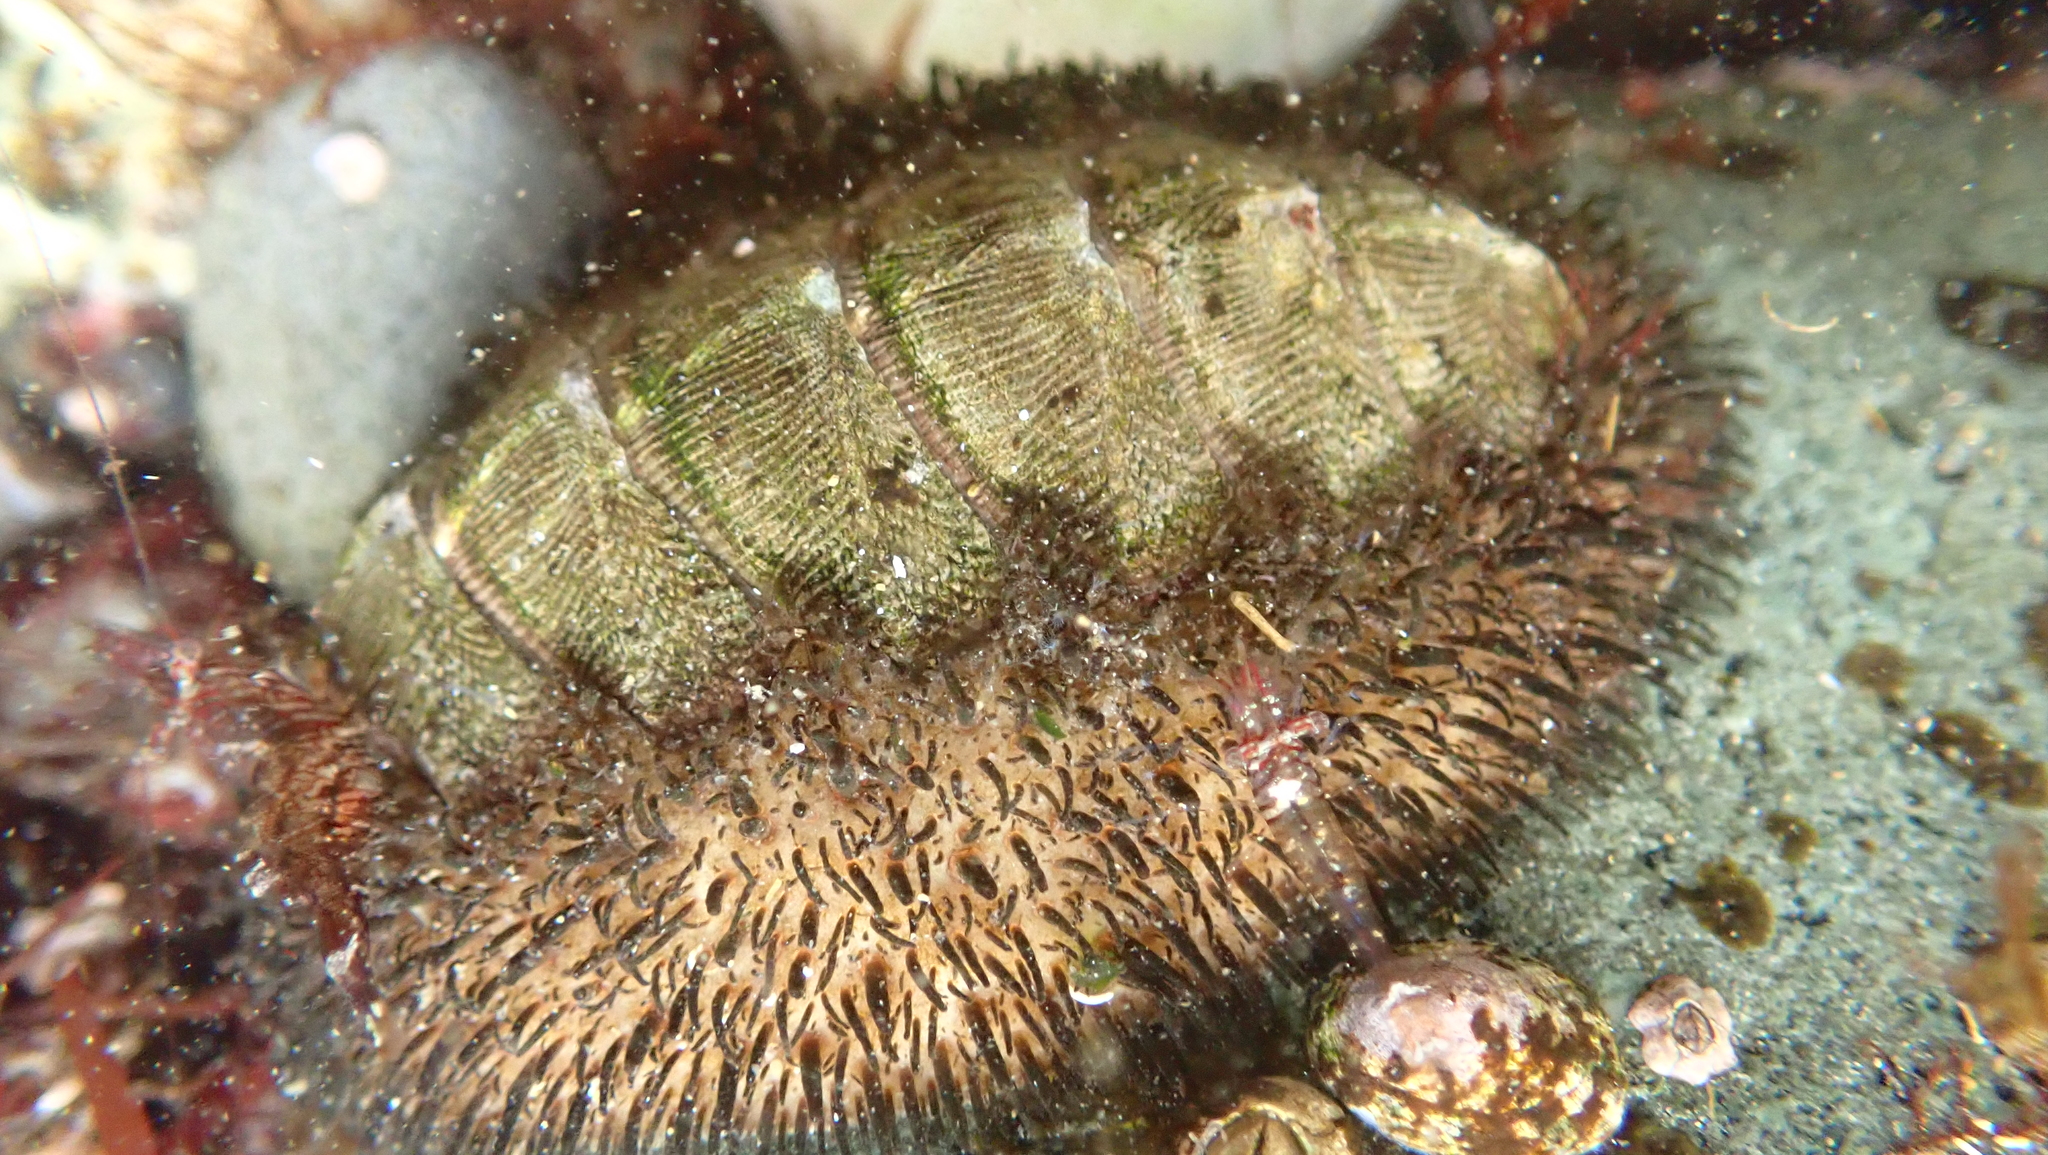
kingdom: Animalia
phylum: Mollusca
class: Polyplacophora
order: Chitonida
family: Mopaliidae
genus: Mopalia
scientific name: Mopalia muscosa
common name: Mossy chiton
